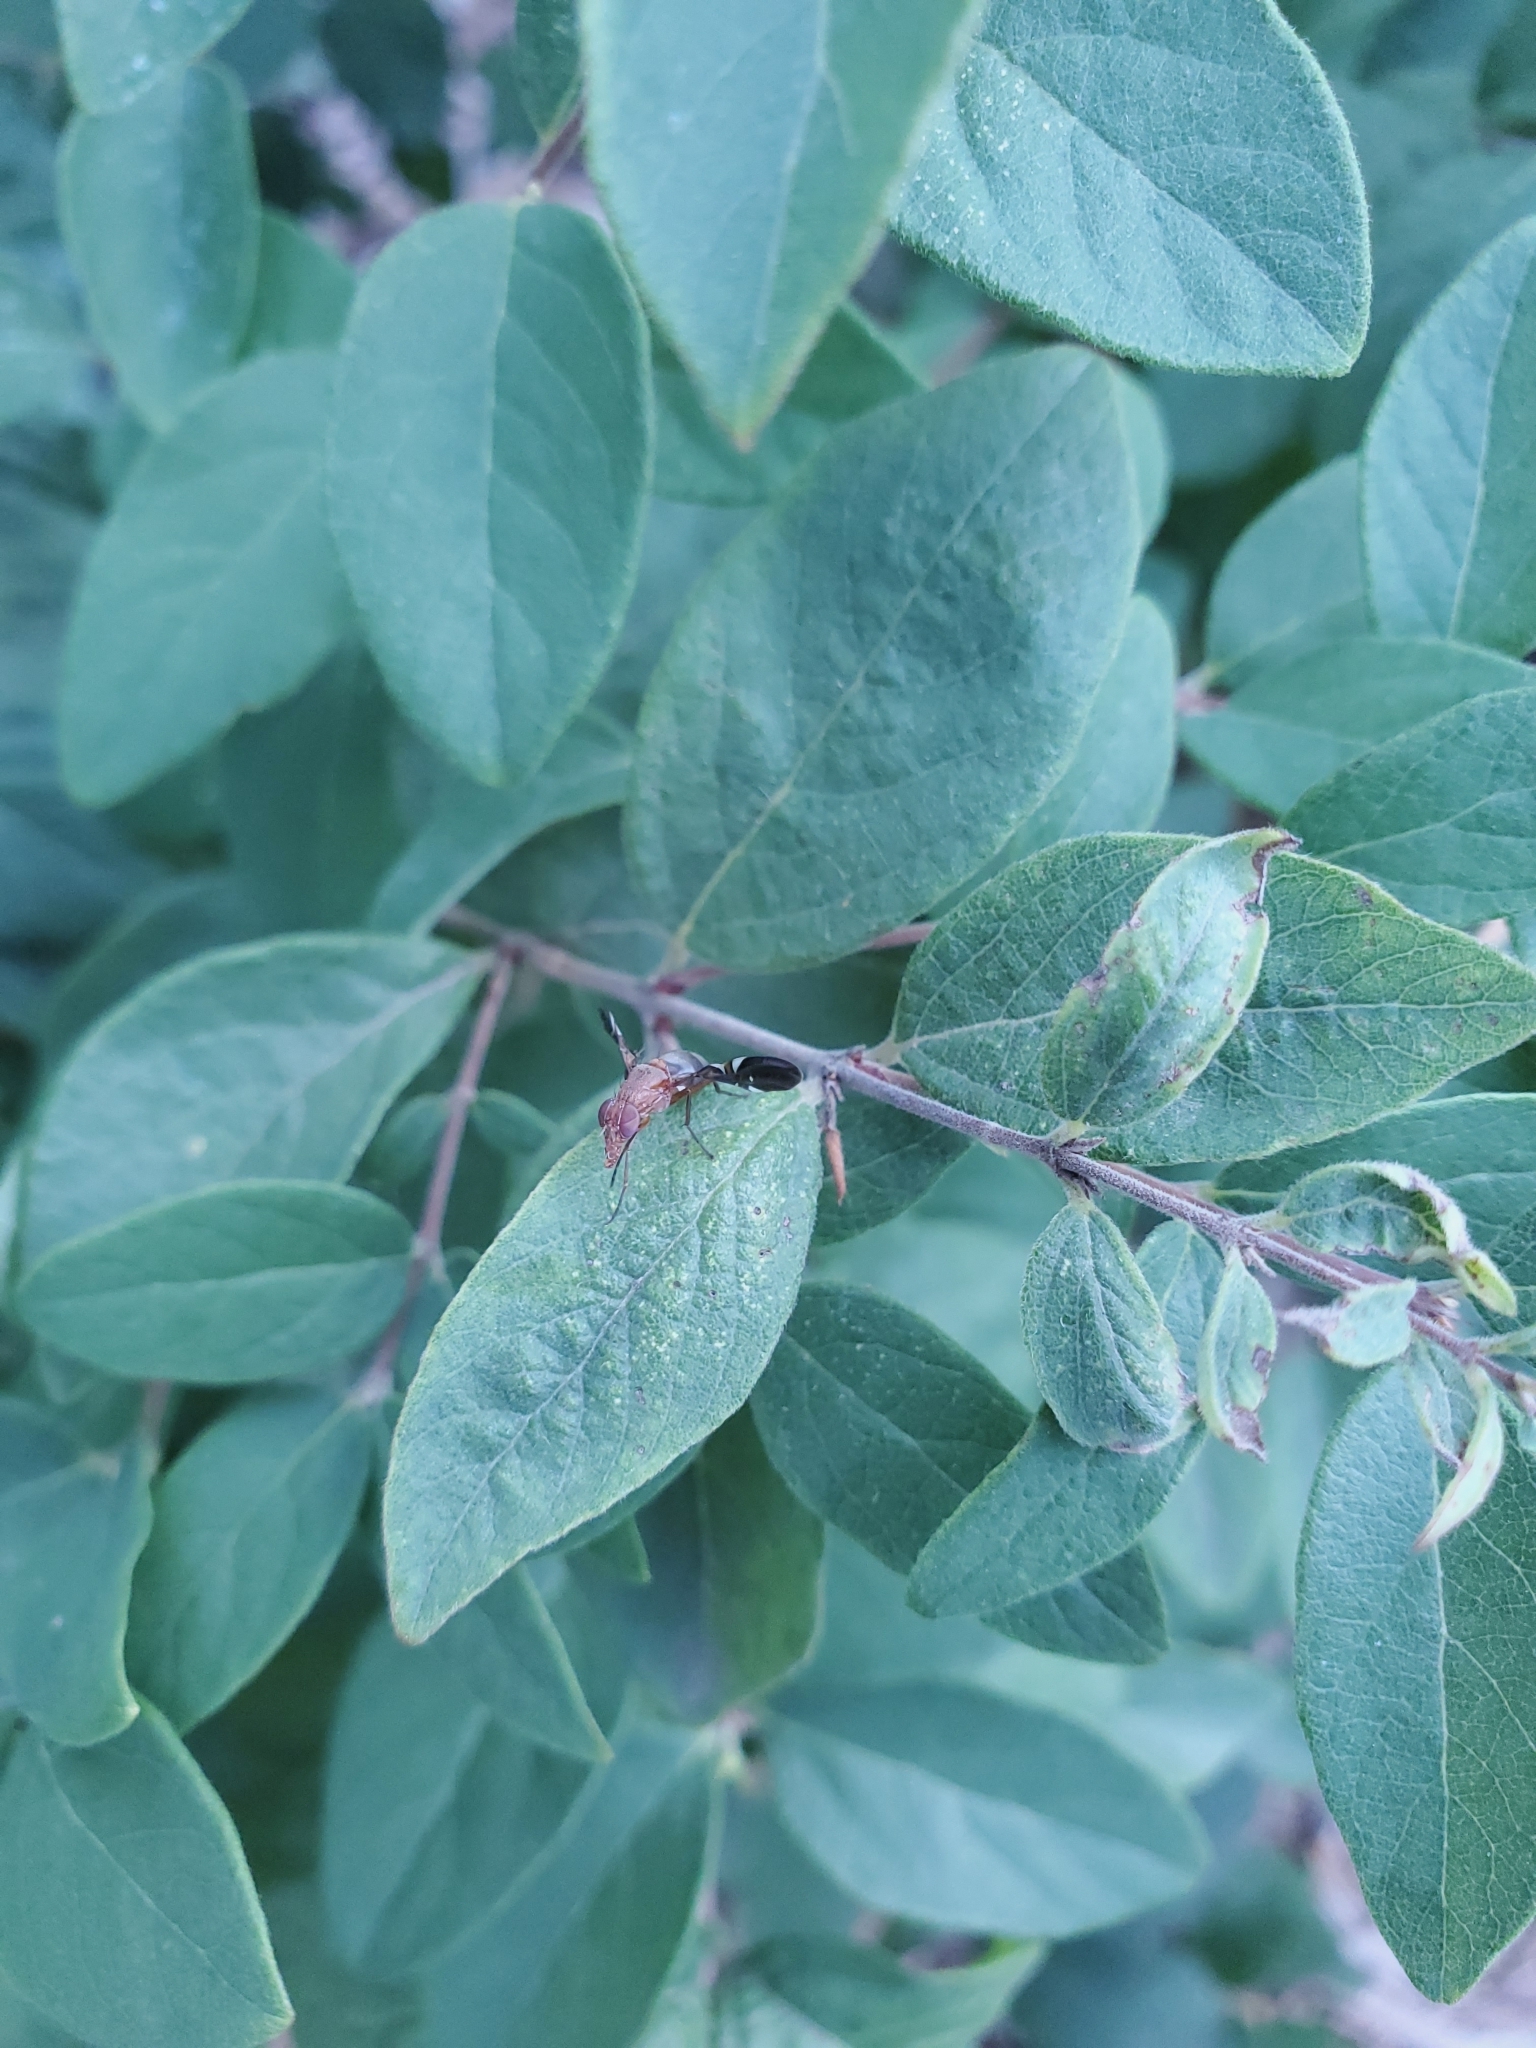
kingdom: Animalia
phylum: Arthropoda
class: Insecta
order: Diptera
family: Ulidiidae
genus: Delphinia
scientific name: Delphinia picta
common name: Common picture-winged fly
